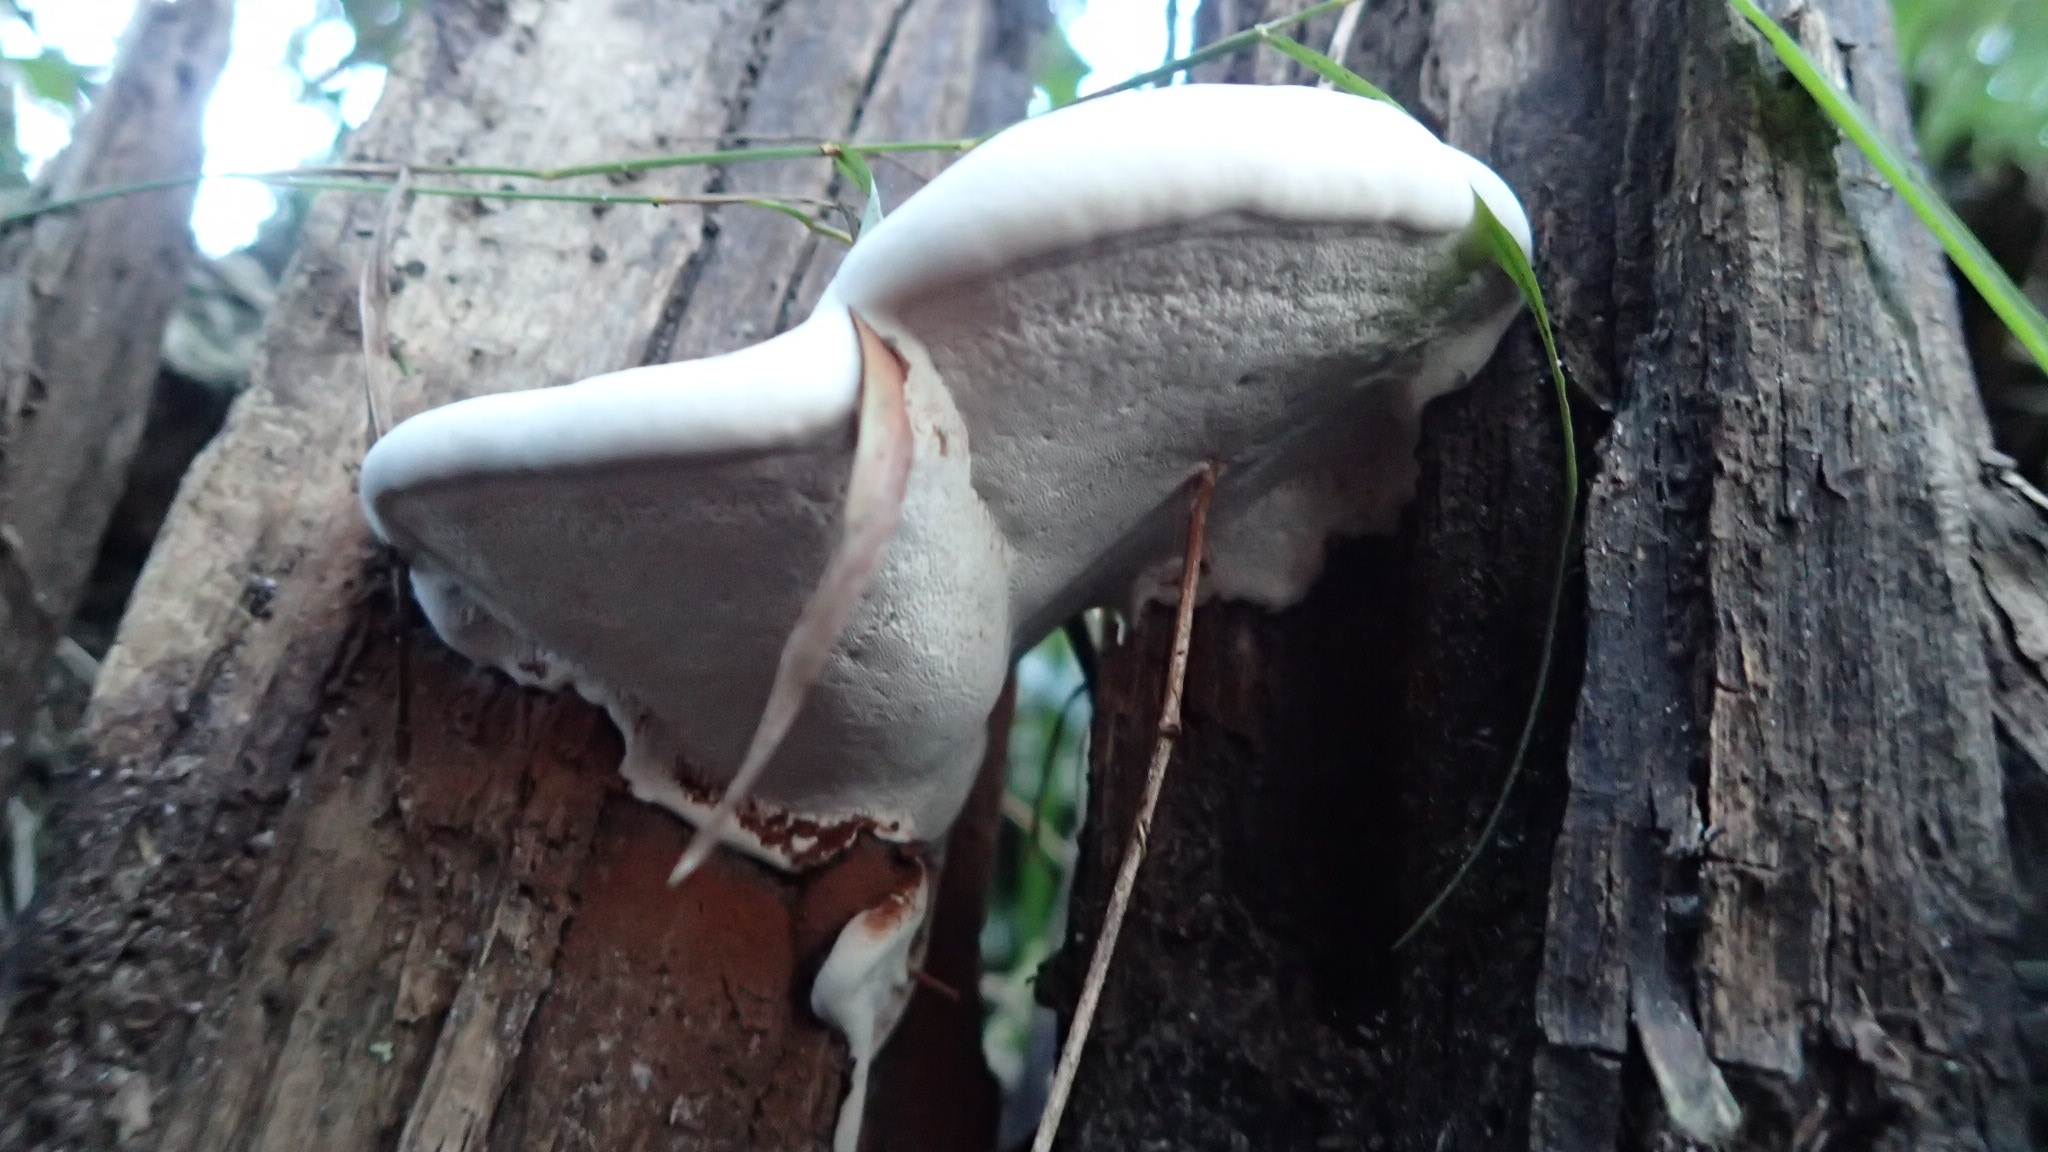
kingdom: Fungi
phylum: Basidiomycota
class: Agaricomycetes
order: Polyporales
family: Polyporaceae
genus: Ganoderma
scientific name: Ganoderma applanatum
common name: Artist's bracket
